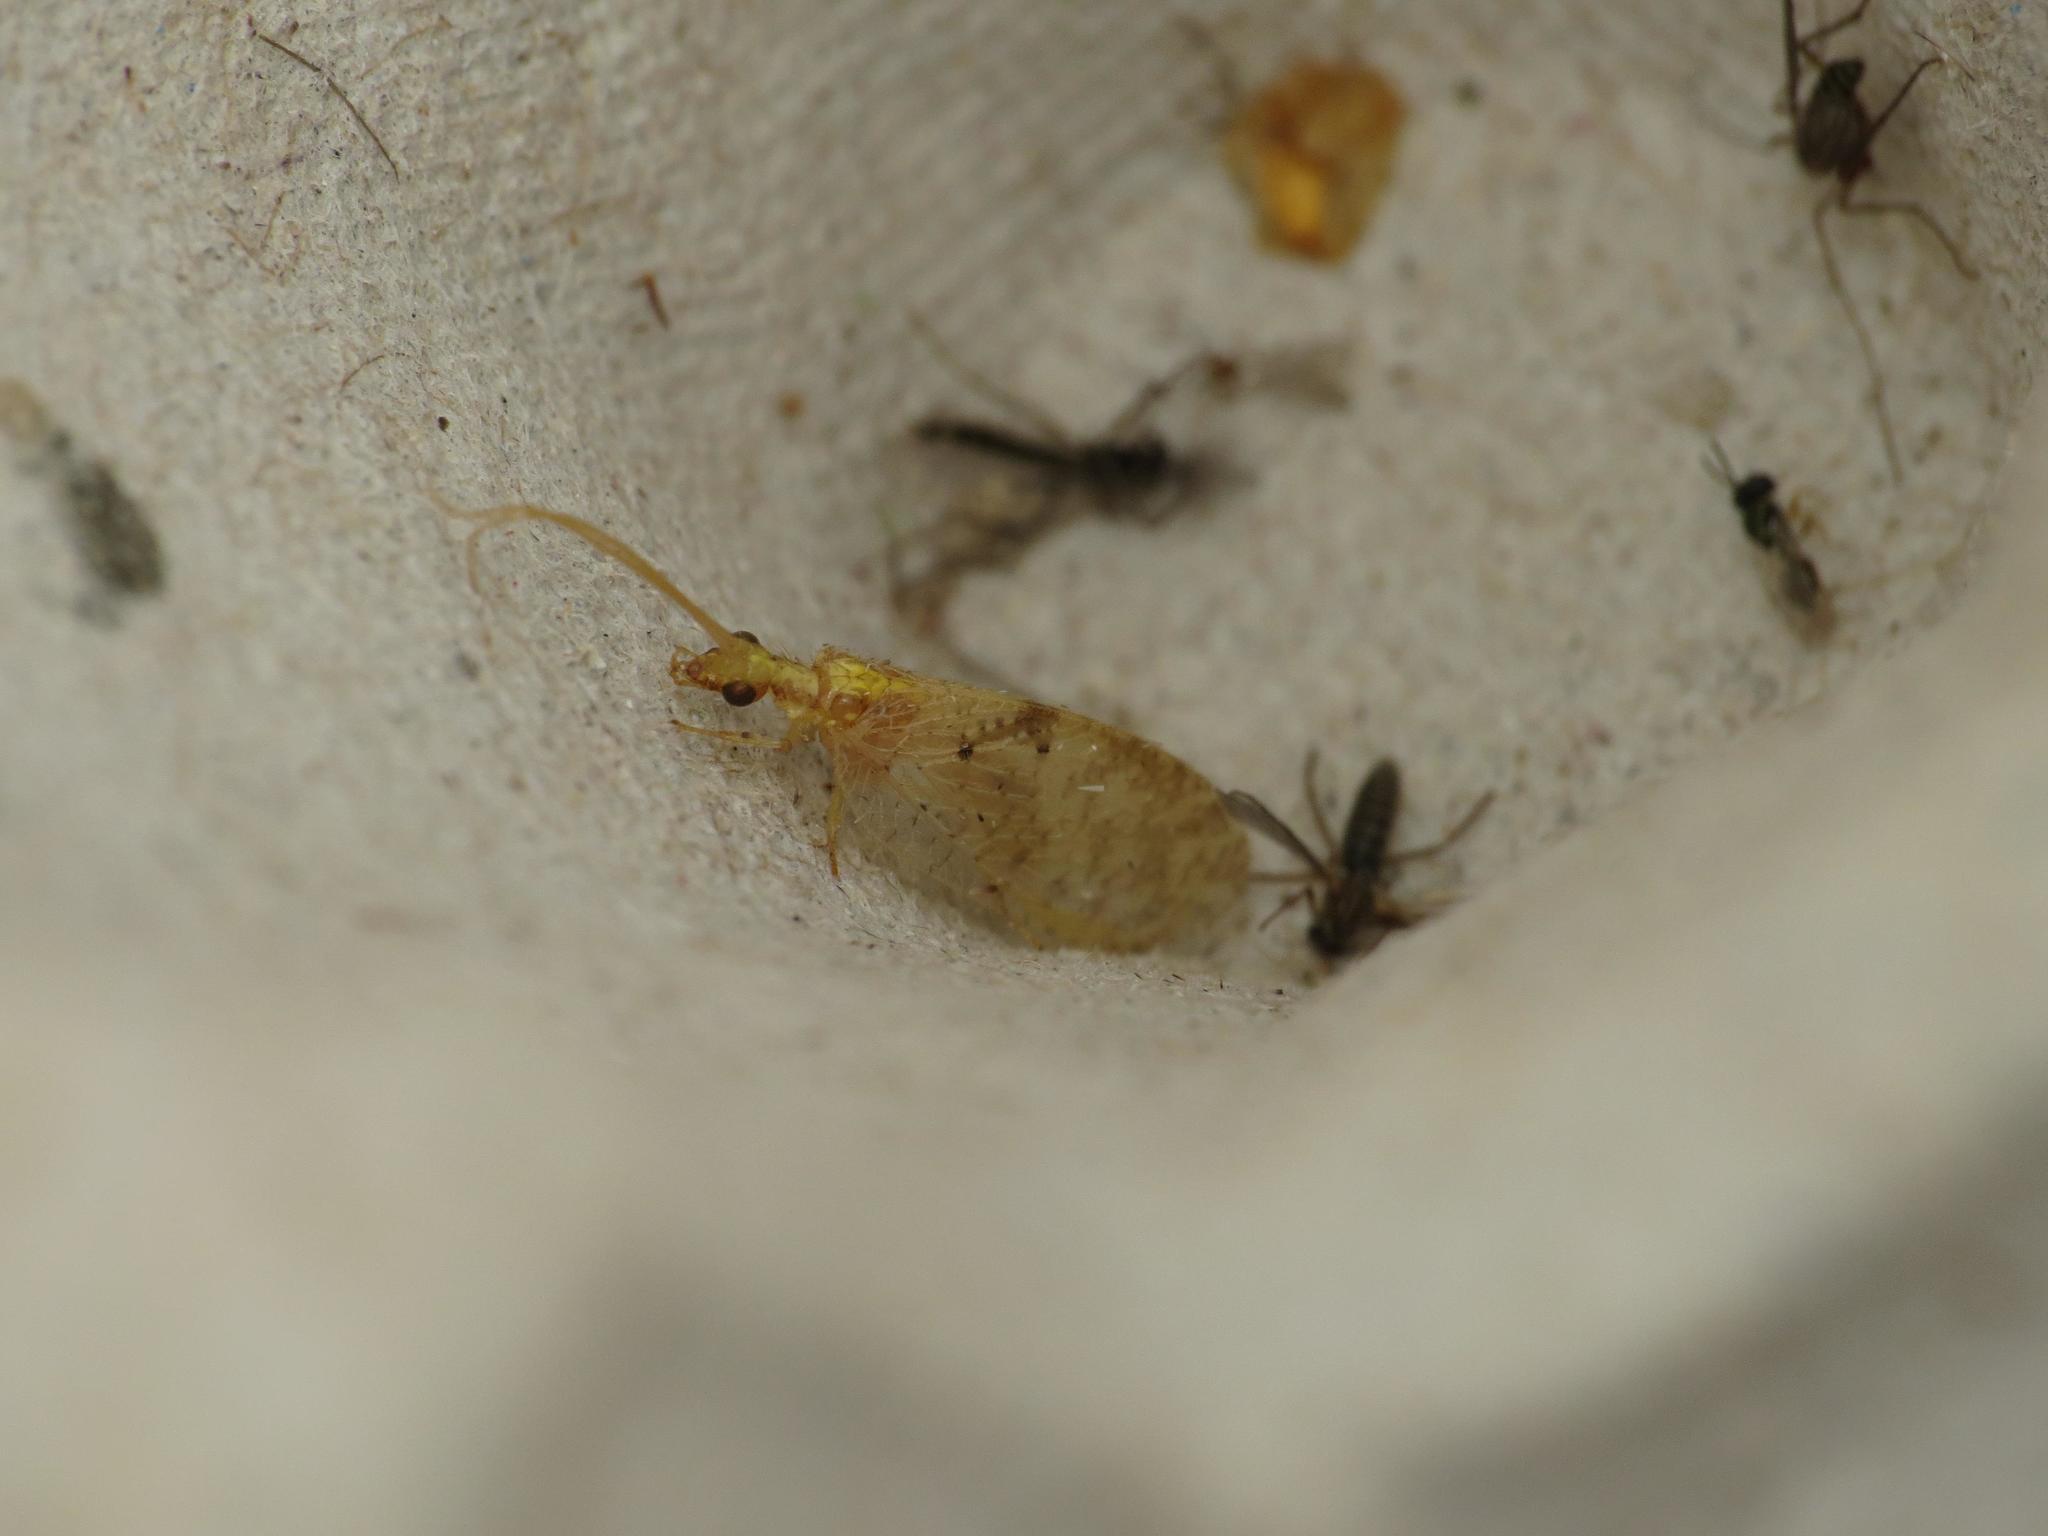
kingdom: Animalia
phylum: Arthropoda
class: Insecta
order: Neuroptera
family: Hemerobiidae
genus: Hemerobius
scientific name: Hemerobius lutescens
